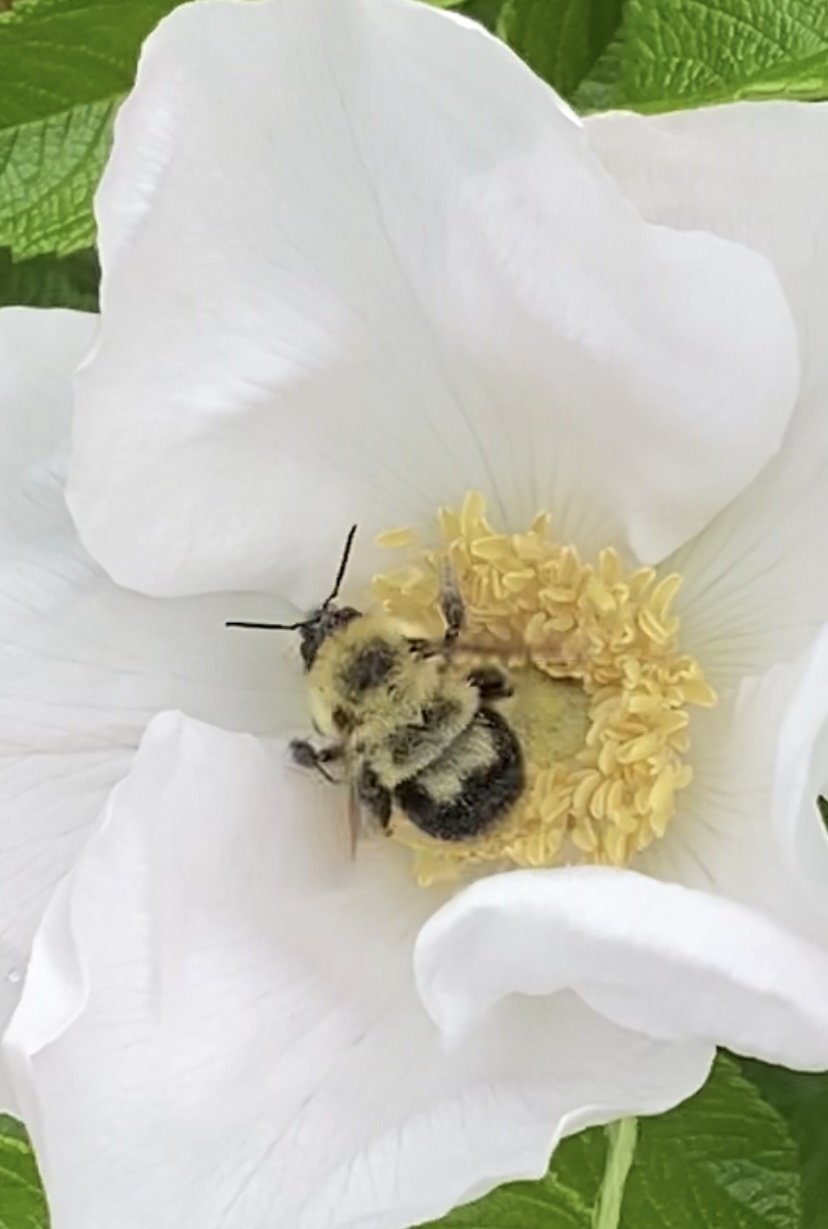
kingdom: Animalia
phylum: Arthropoda
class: Insecta
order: Hymenoptera
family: Apidae
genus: Bombus
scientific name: Bombus bimaculatus
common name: Two-spotted bumble bee
